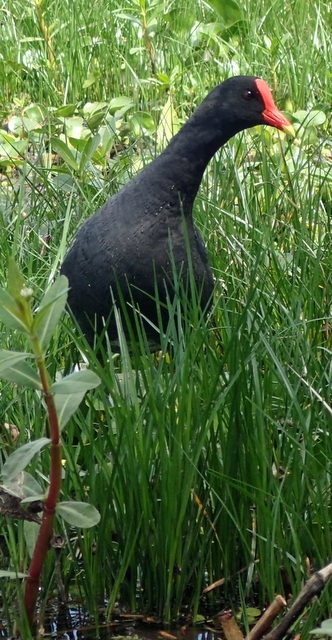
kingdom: Animalia
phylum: Chordata
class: Aves
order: Gruiformes
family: Rallidae
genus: Gallinula
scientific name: Gallinula chloropus
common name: Common moorhen
